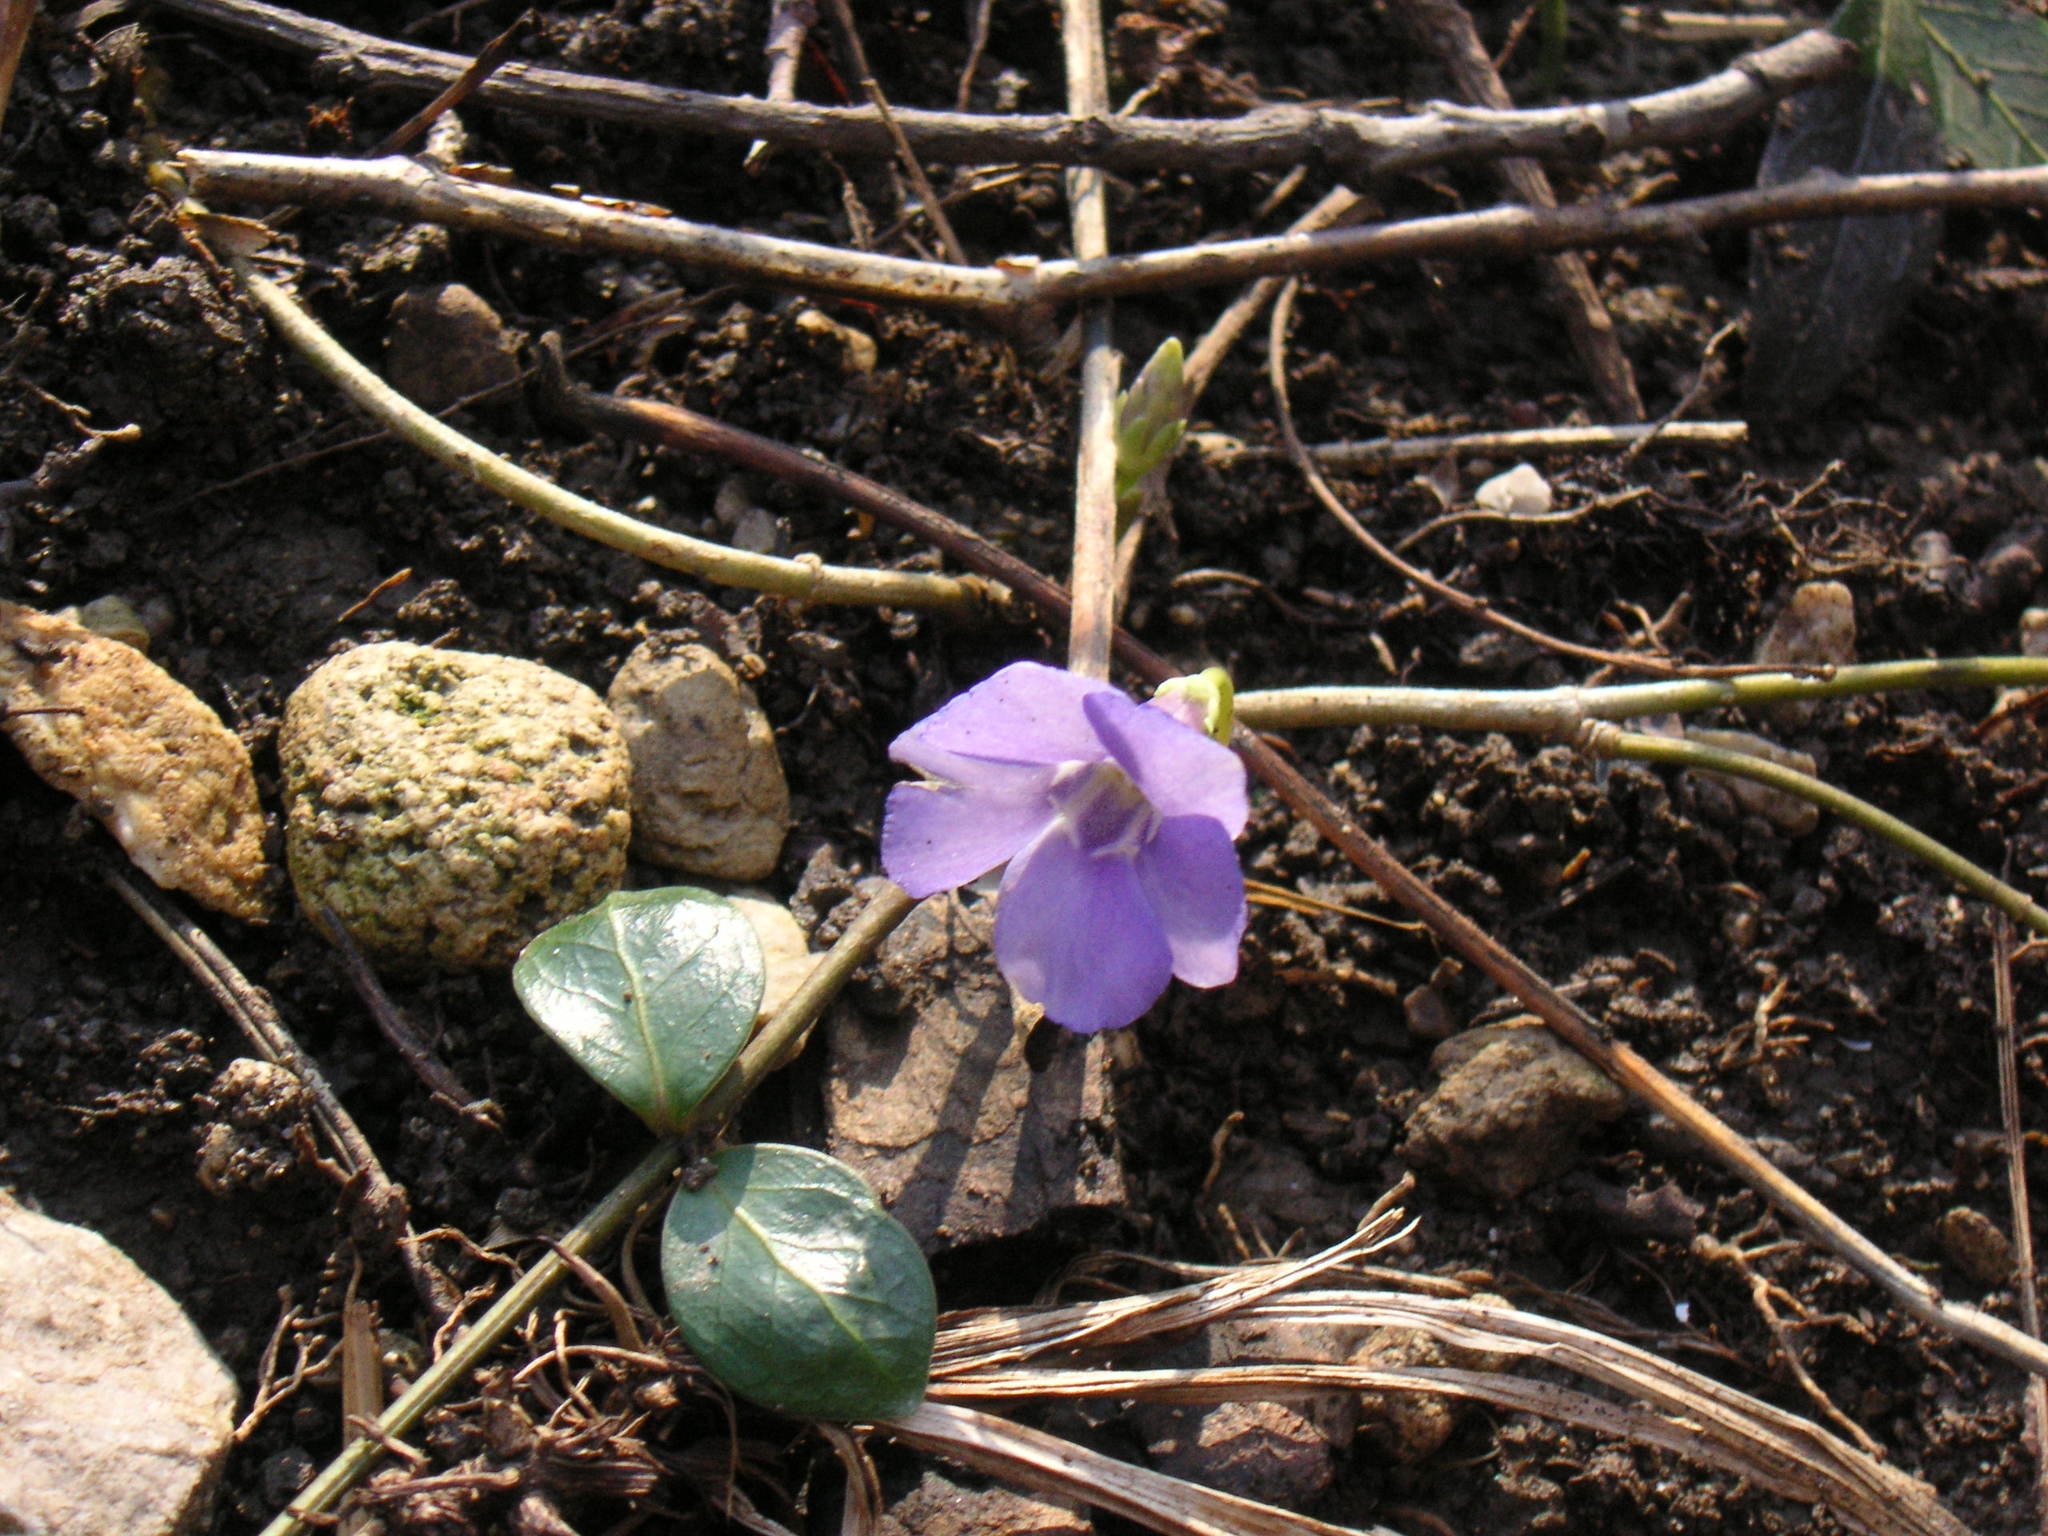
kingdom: Plantae
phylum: Tracheophyta
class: Magnoliopsida
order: Gentianales
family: Apocynaceae
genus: Vinca
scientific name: Vinca minor
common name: Lesser periwinkle
